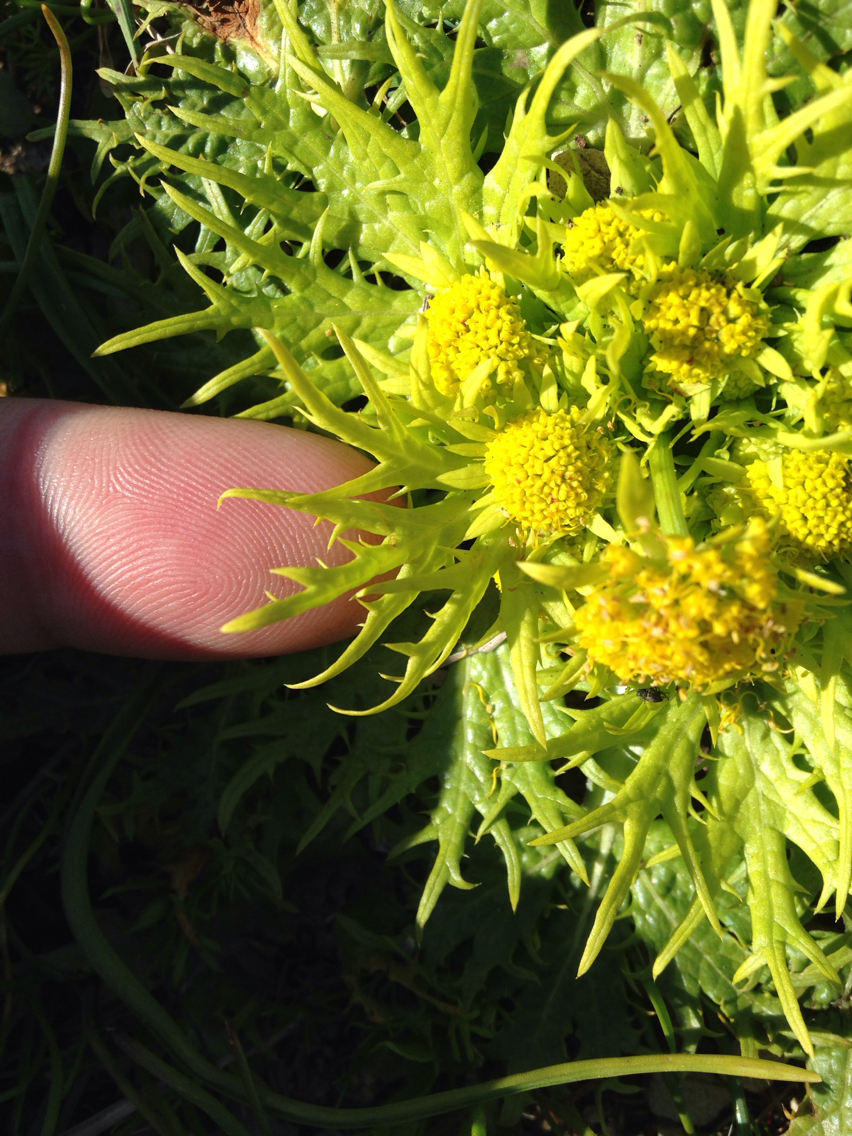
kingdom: Plantae
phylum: Tracheophyta
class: Magnoliopsida
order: Apiales
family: Apiaceae
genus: Sanicula
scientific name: Sanicula arctopoides
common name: Footsteps-of-spring
